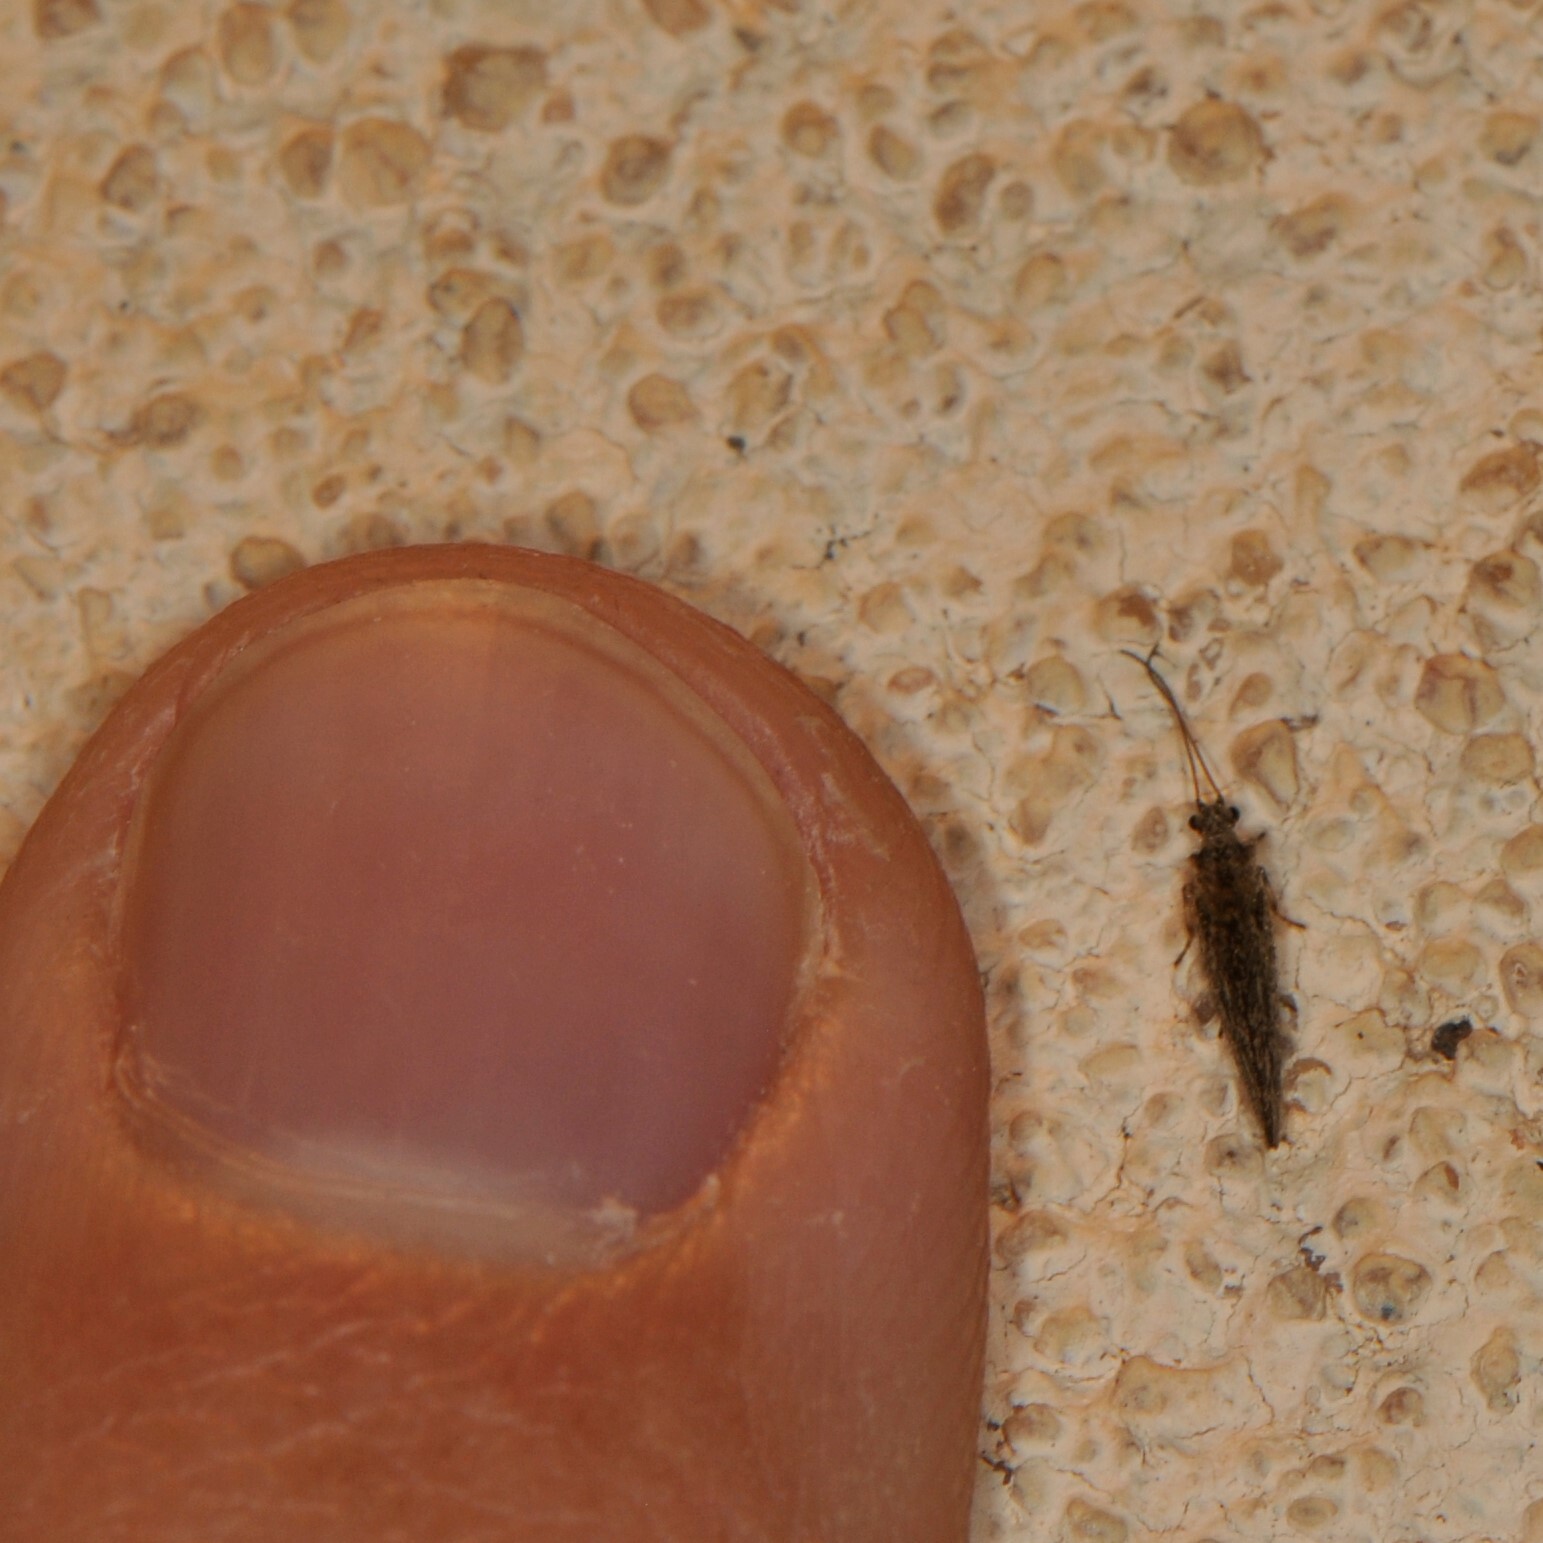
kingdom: Animalia
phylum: Arthropoda
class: Insecta
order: Neuroptera
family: Hemerobiidae
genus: Micromus
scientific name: Micromus variolosus
